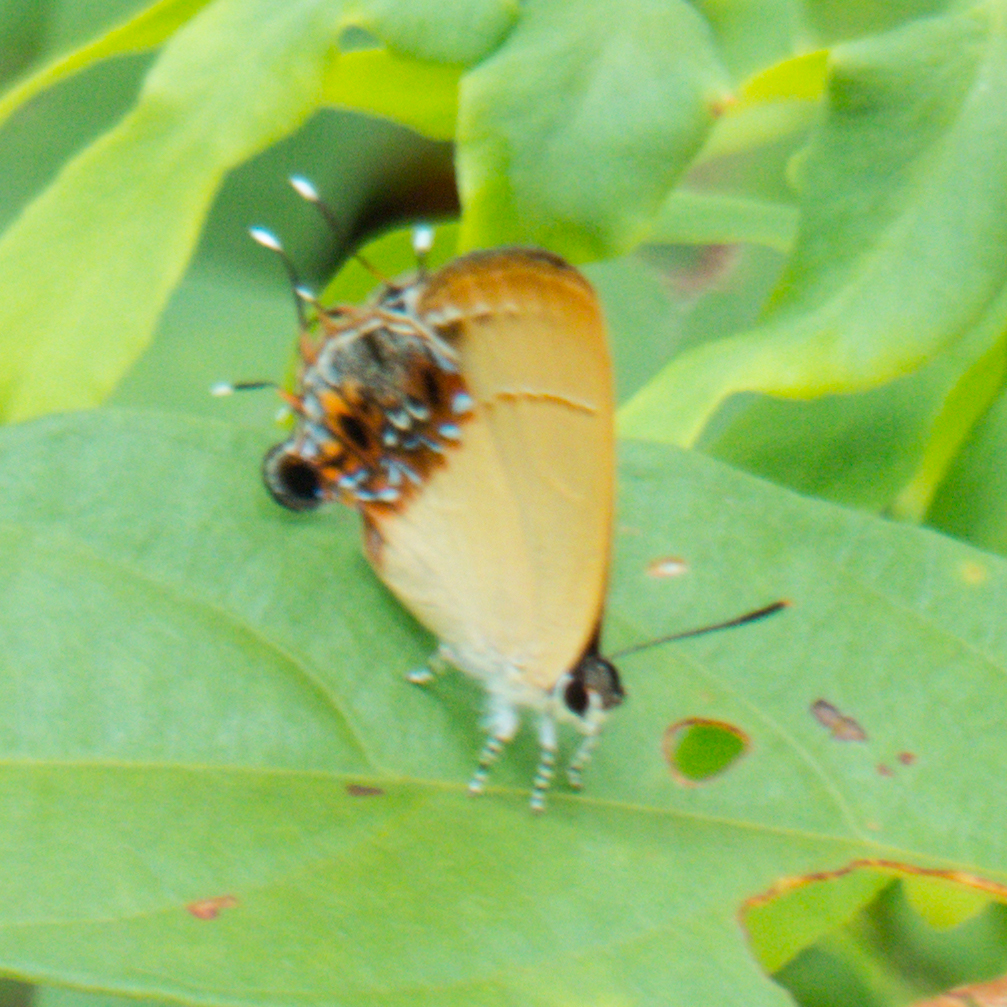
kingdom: Animalia
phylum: Arthropoda
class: Insecta
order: Lepidoptera
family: Lycaenidae
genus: Semanga
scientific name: Semanga superba
